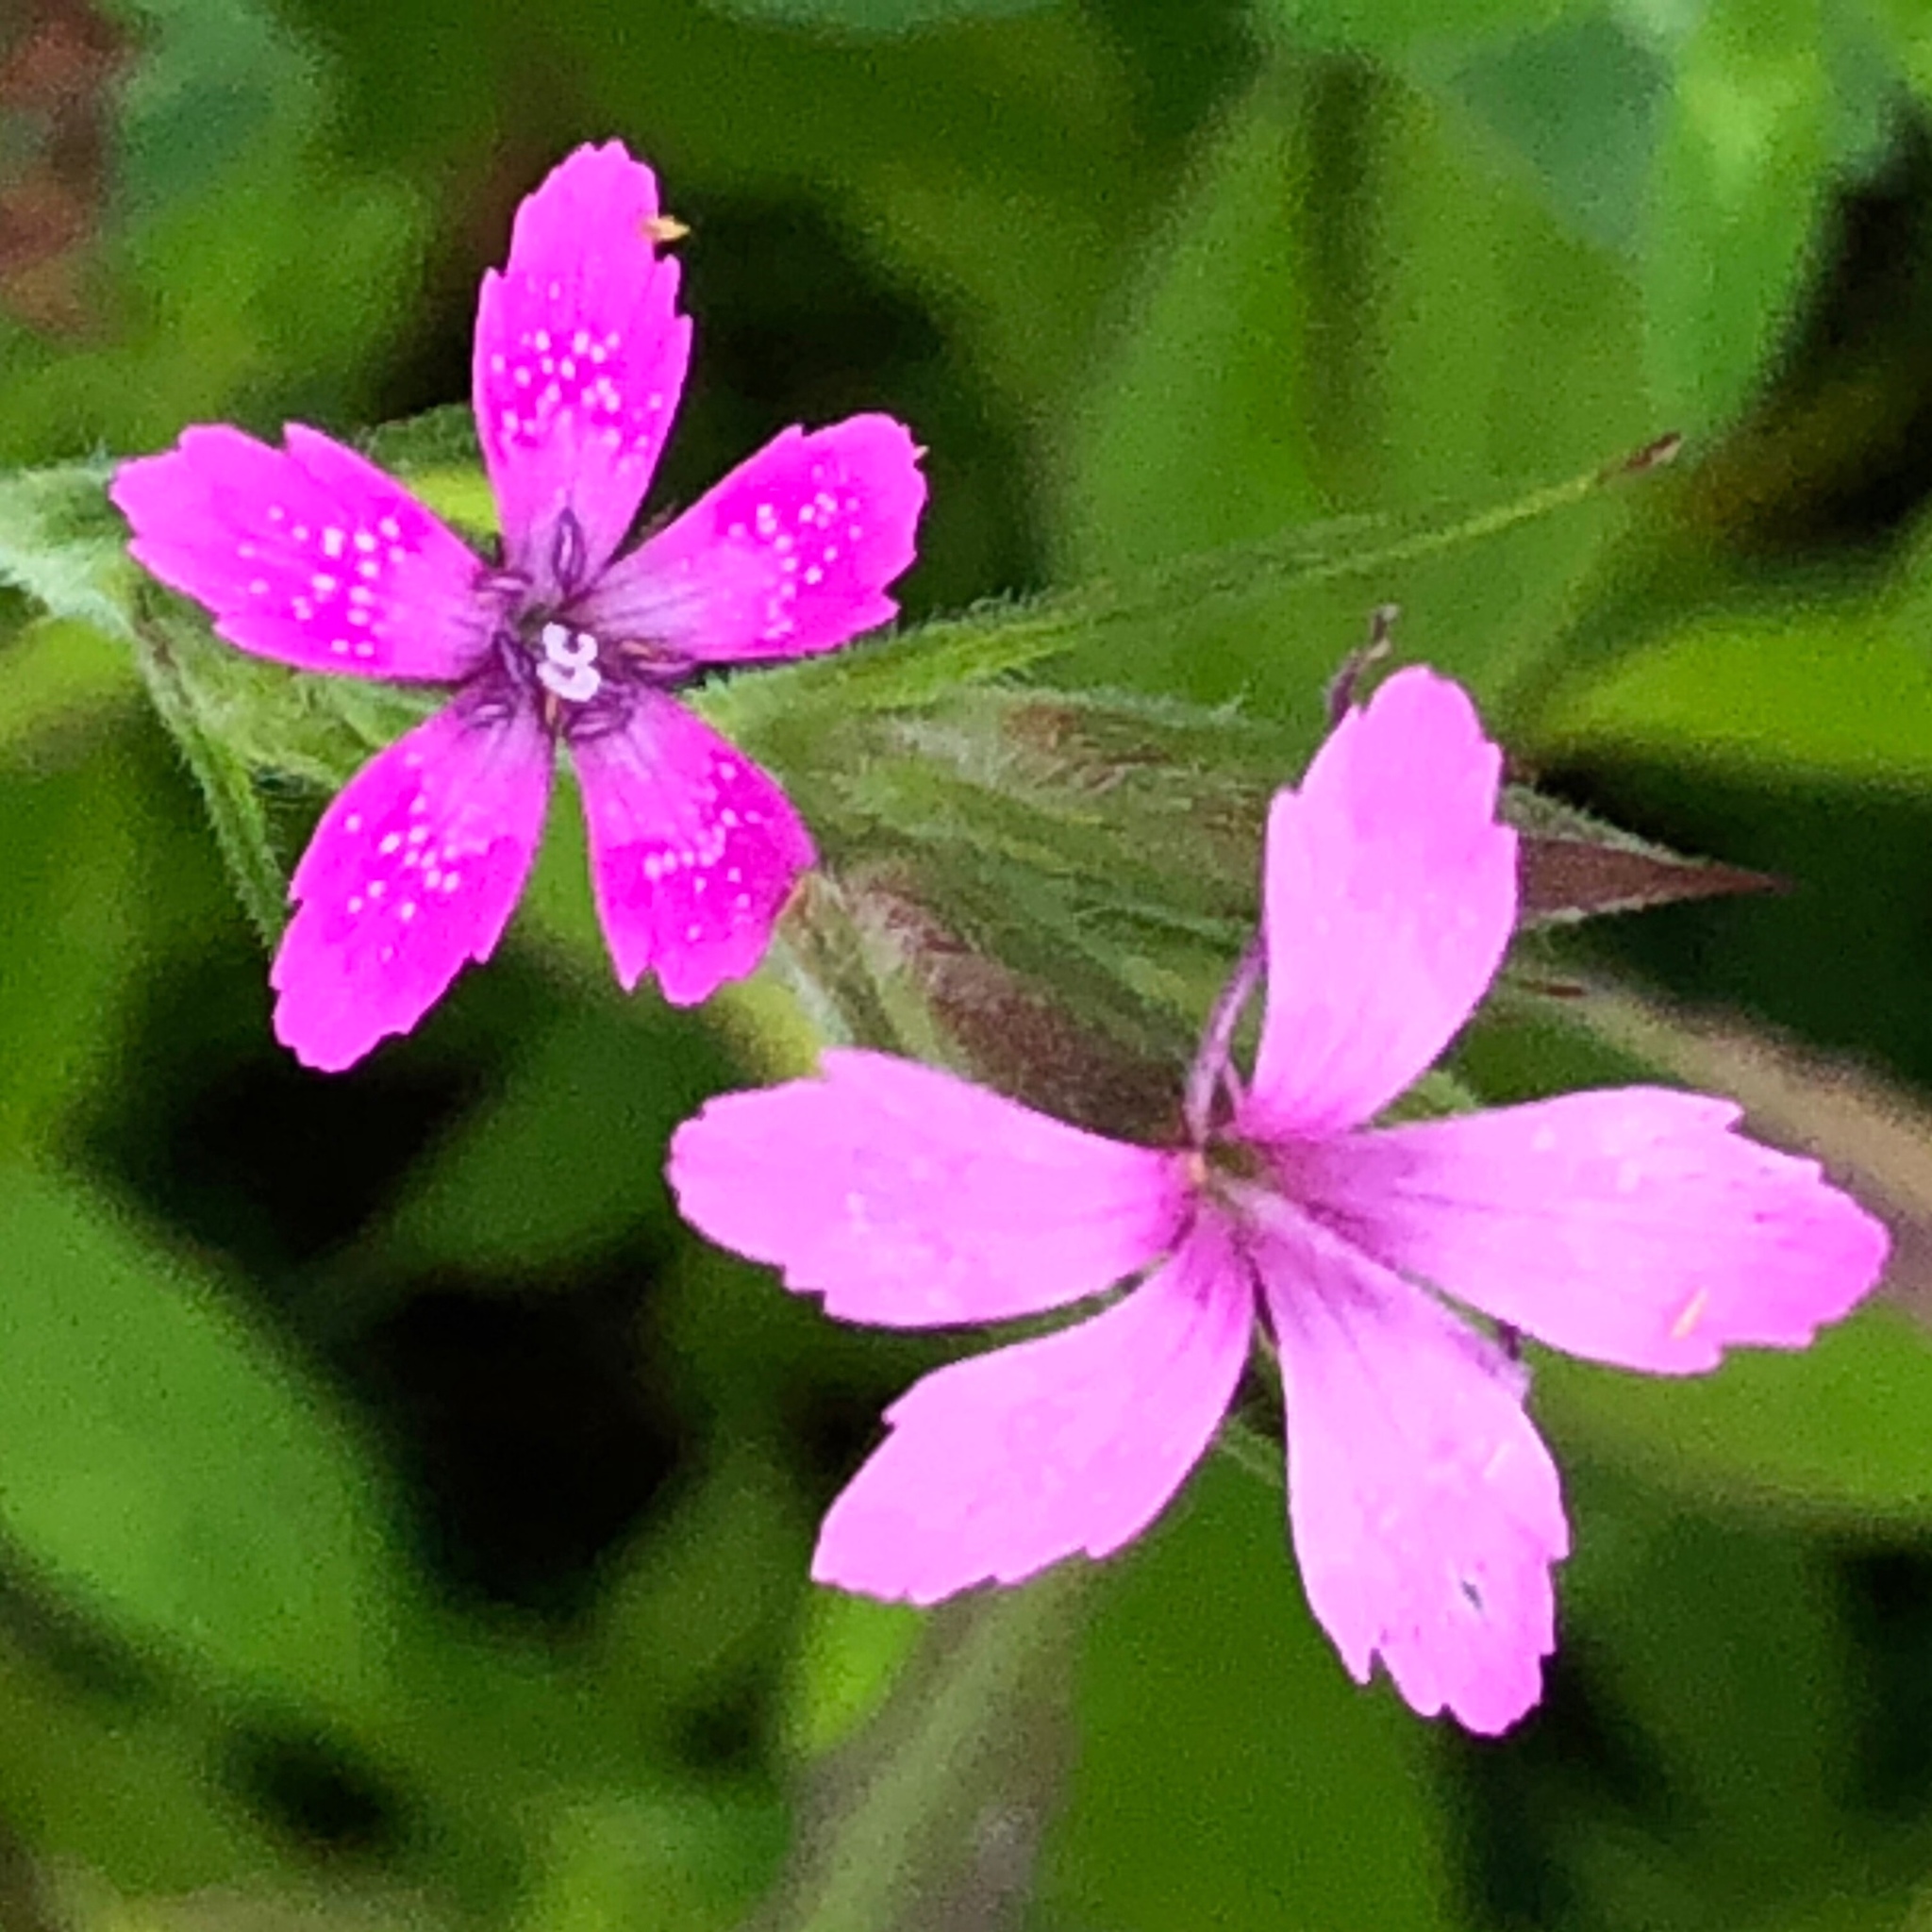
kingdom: Plantae
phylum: Tracheophyta
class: Magnoliopsida
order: Caryophyllales
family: Caryophyllaceae
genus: Dianthus
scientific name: Dianthus armeria
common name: Deptford pink
